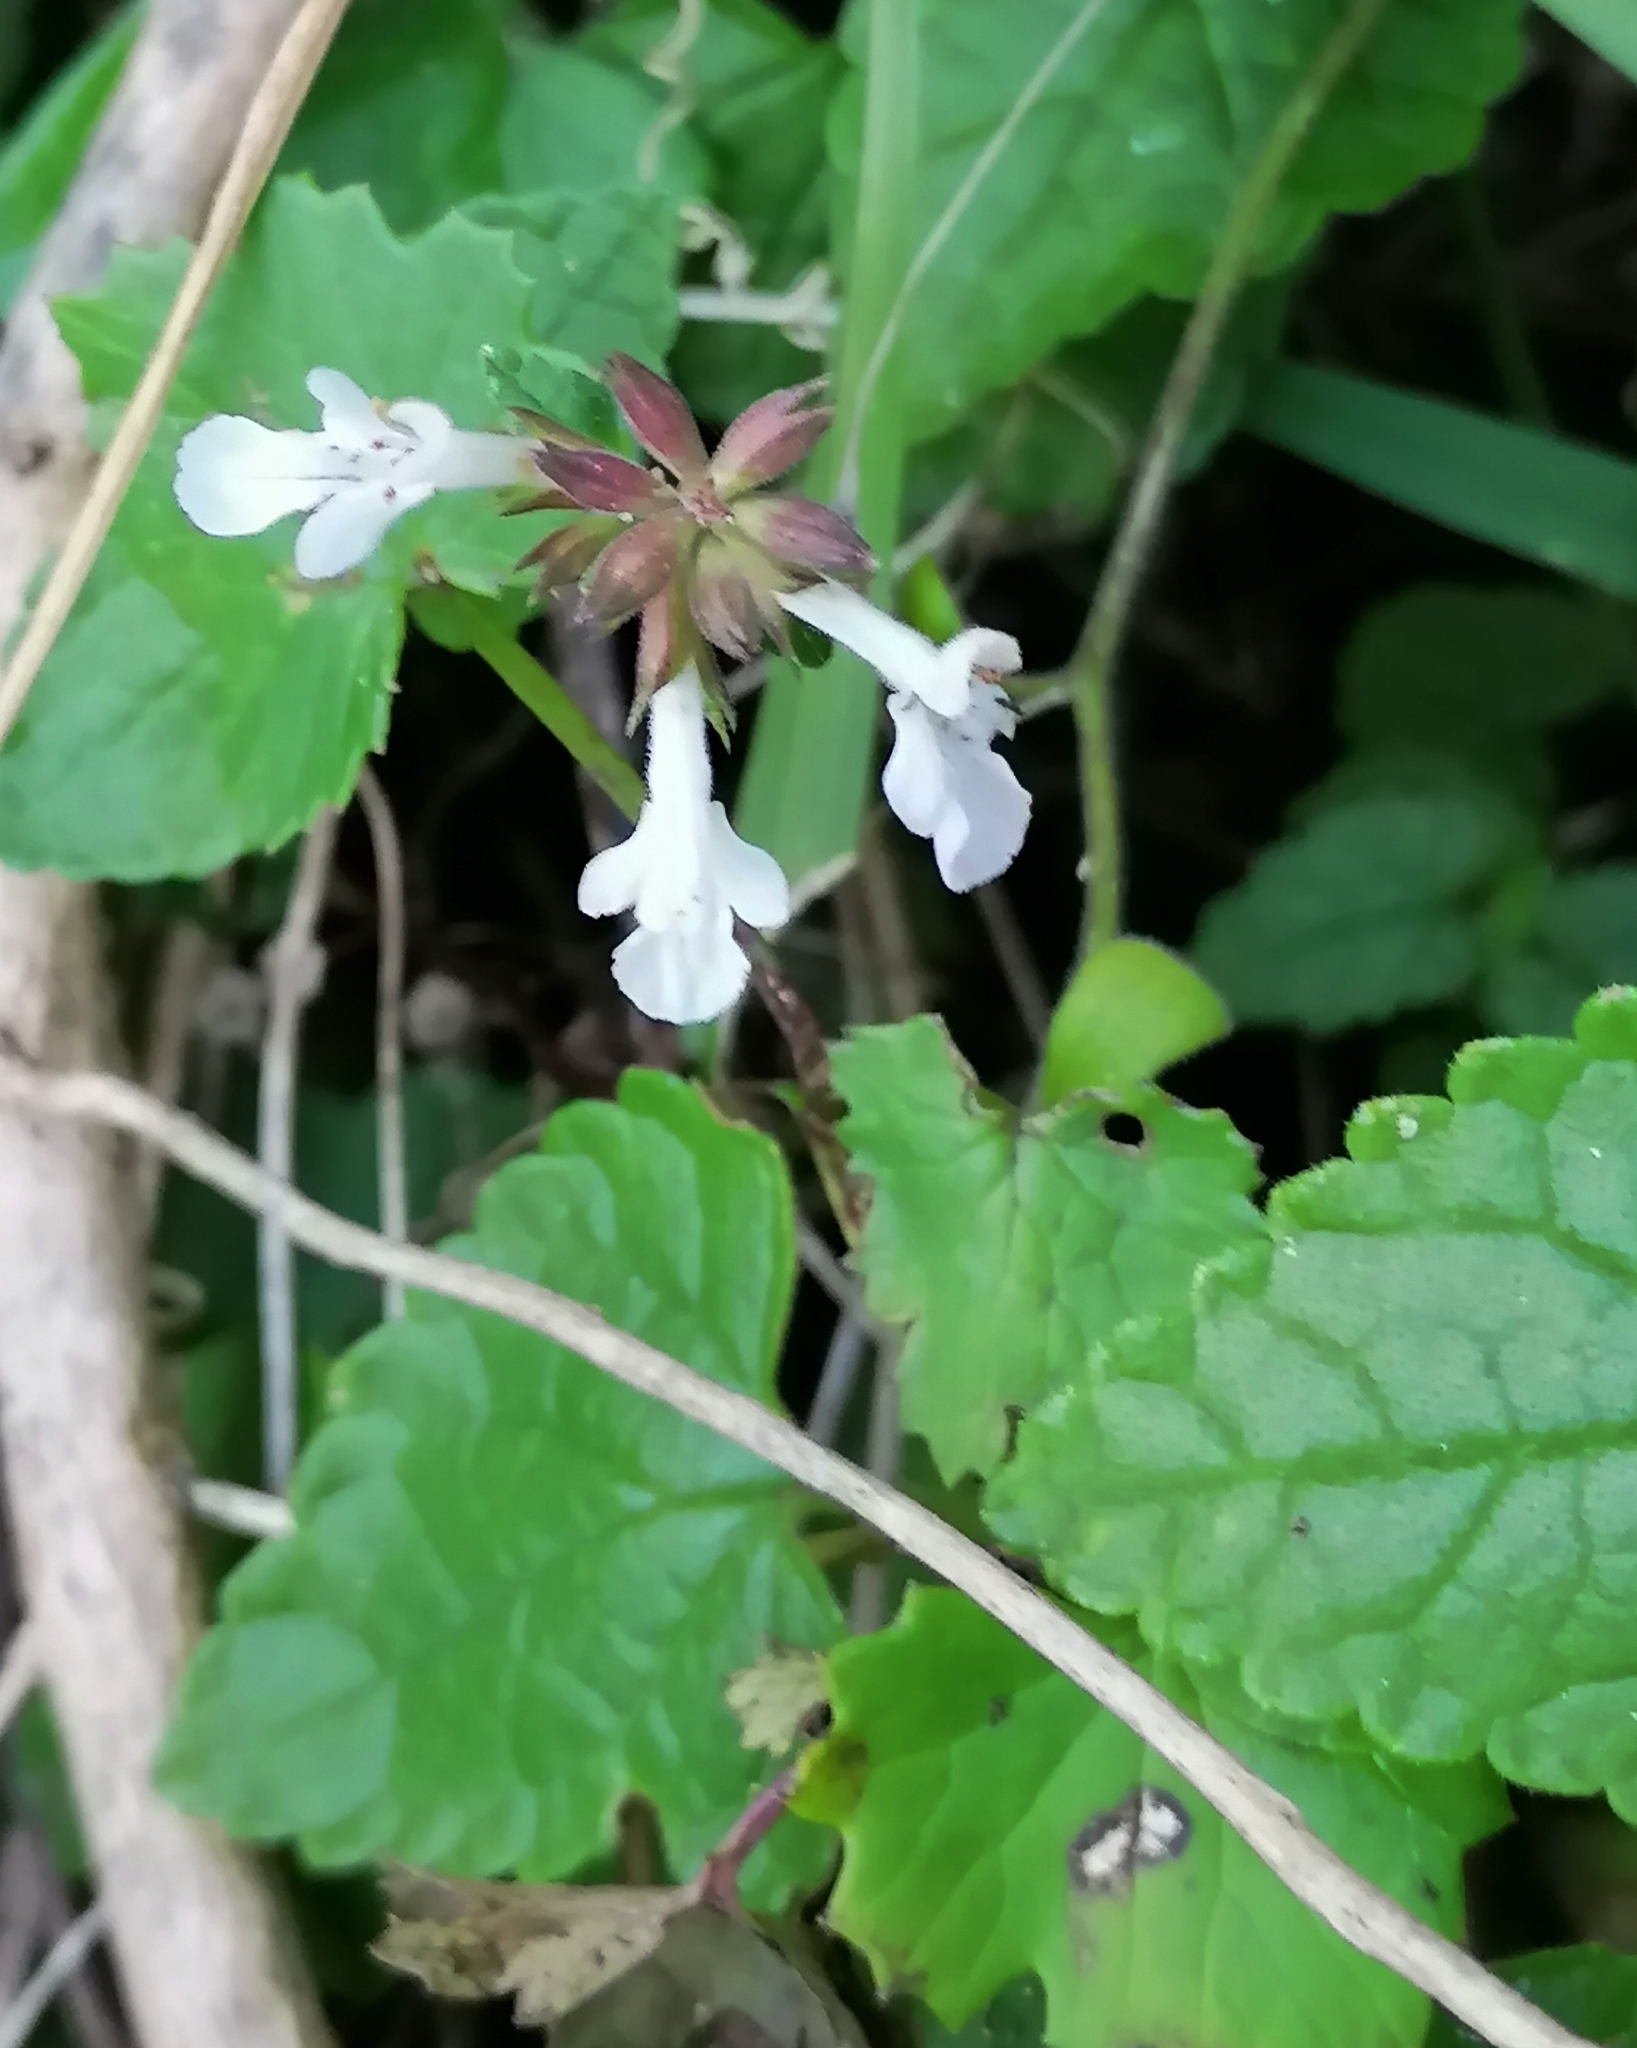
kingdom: Plantae
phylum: Tracheophyta
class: Magnoliopsida
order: Lamiales
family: Lamiaceae
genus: Stachys
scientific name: Stachys aethiopica
